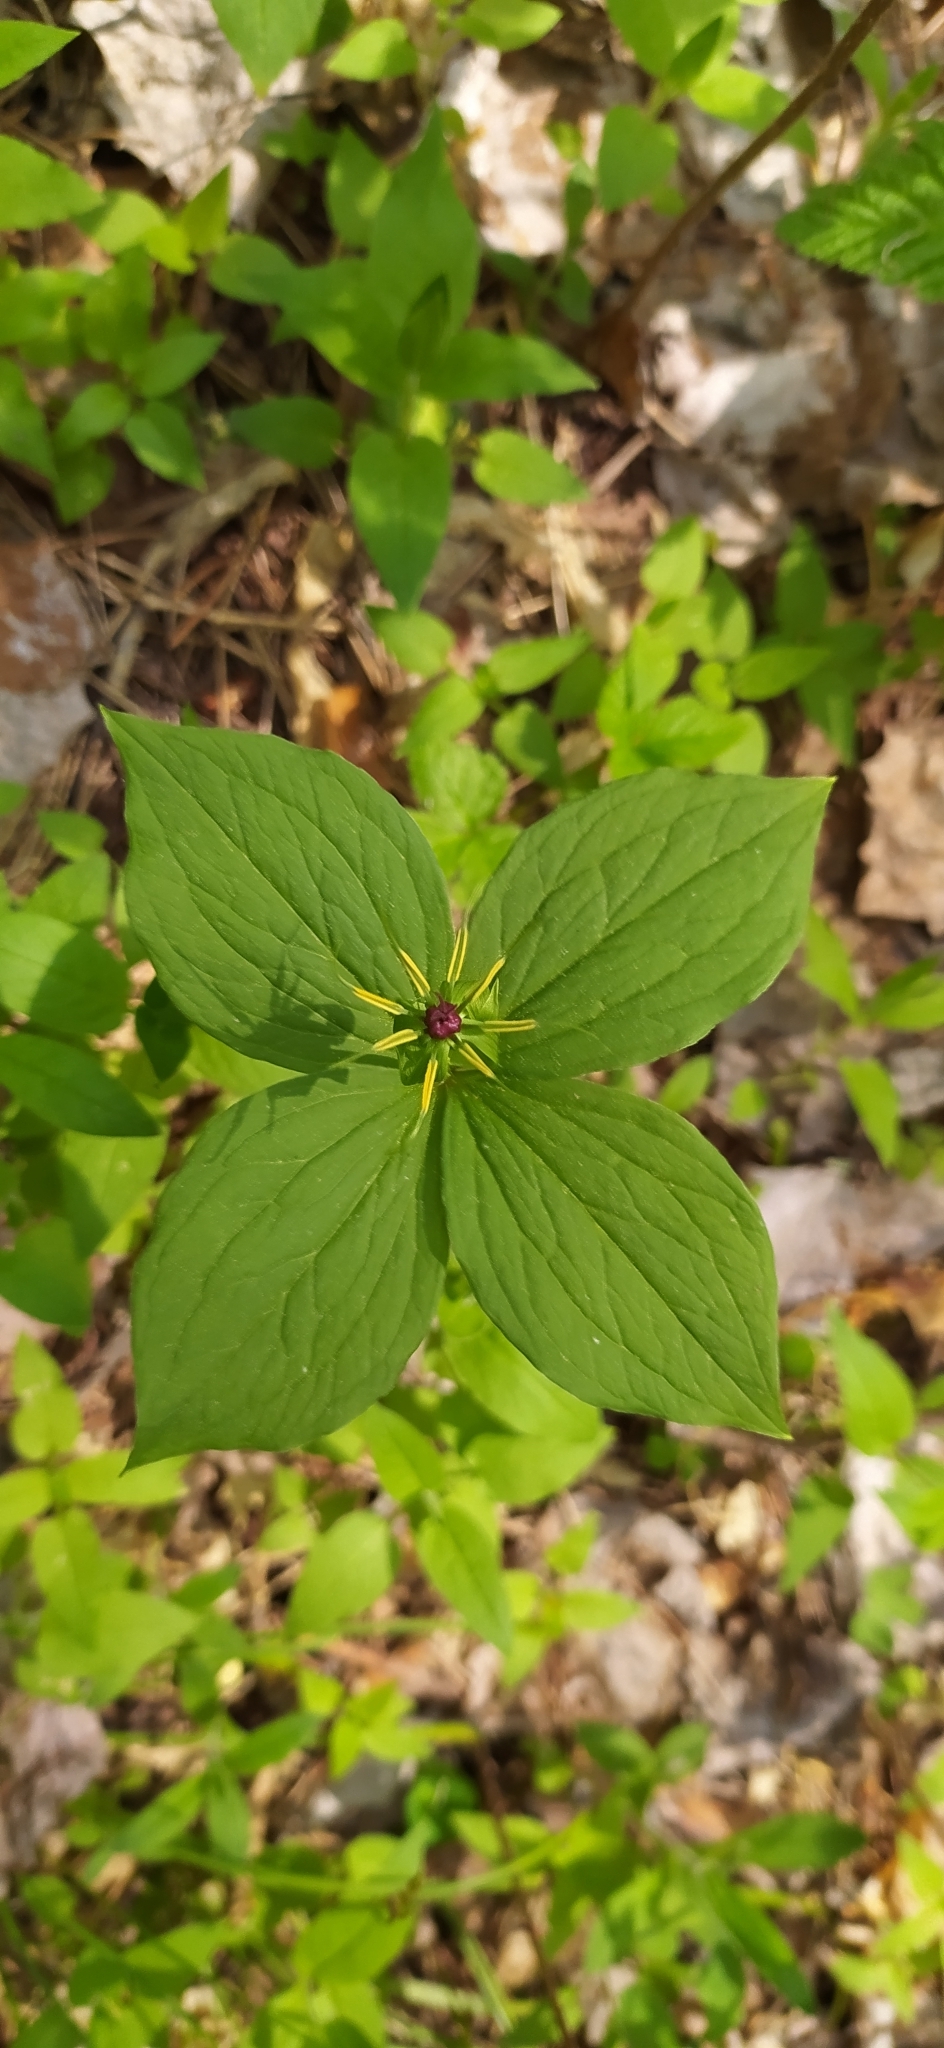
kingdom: Plantae
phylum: Tracheophyta
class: Liliopsida
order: Liliales
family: Melanthiaceae
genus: Paris
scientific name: Paris quadrifolia
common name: Herb-paris
